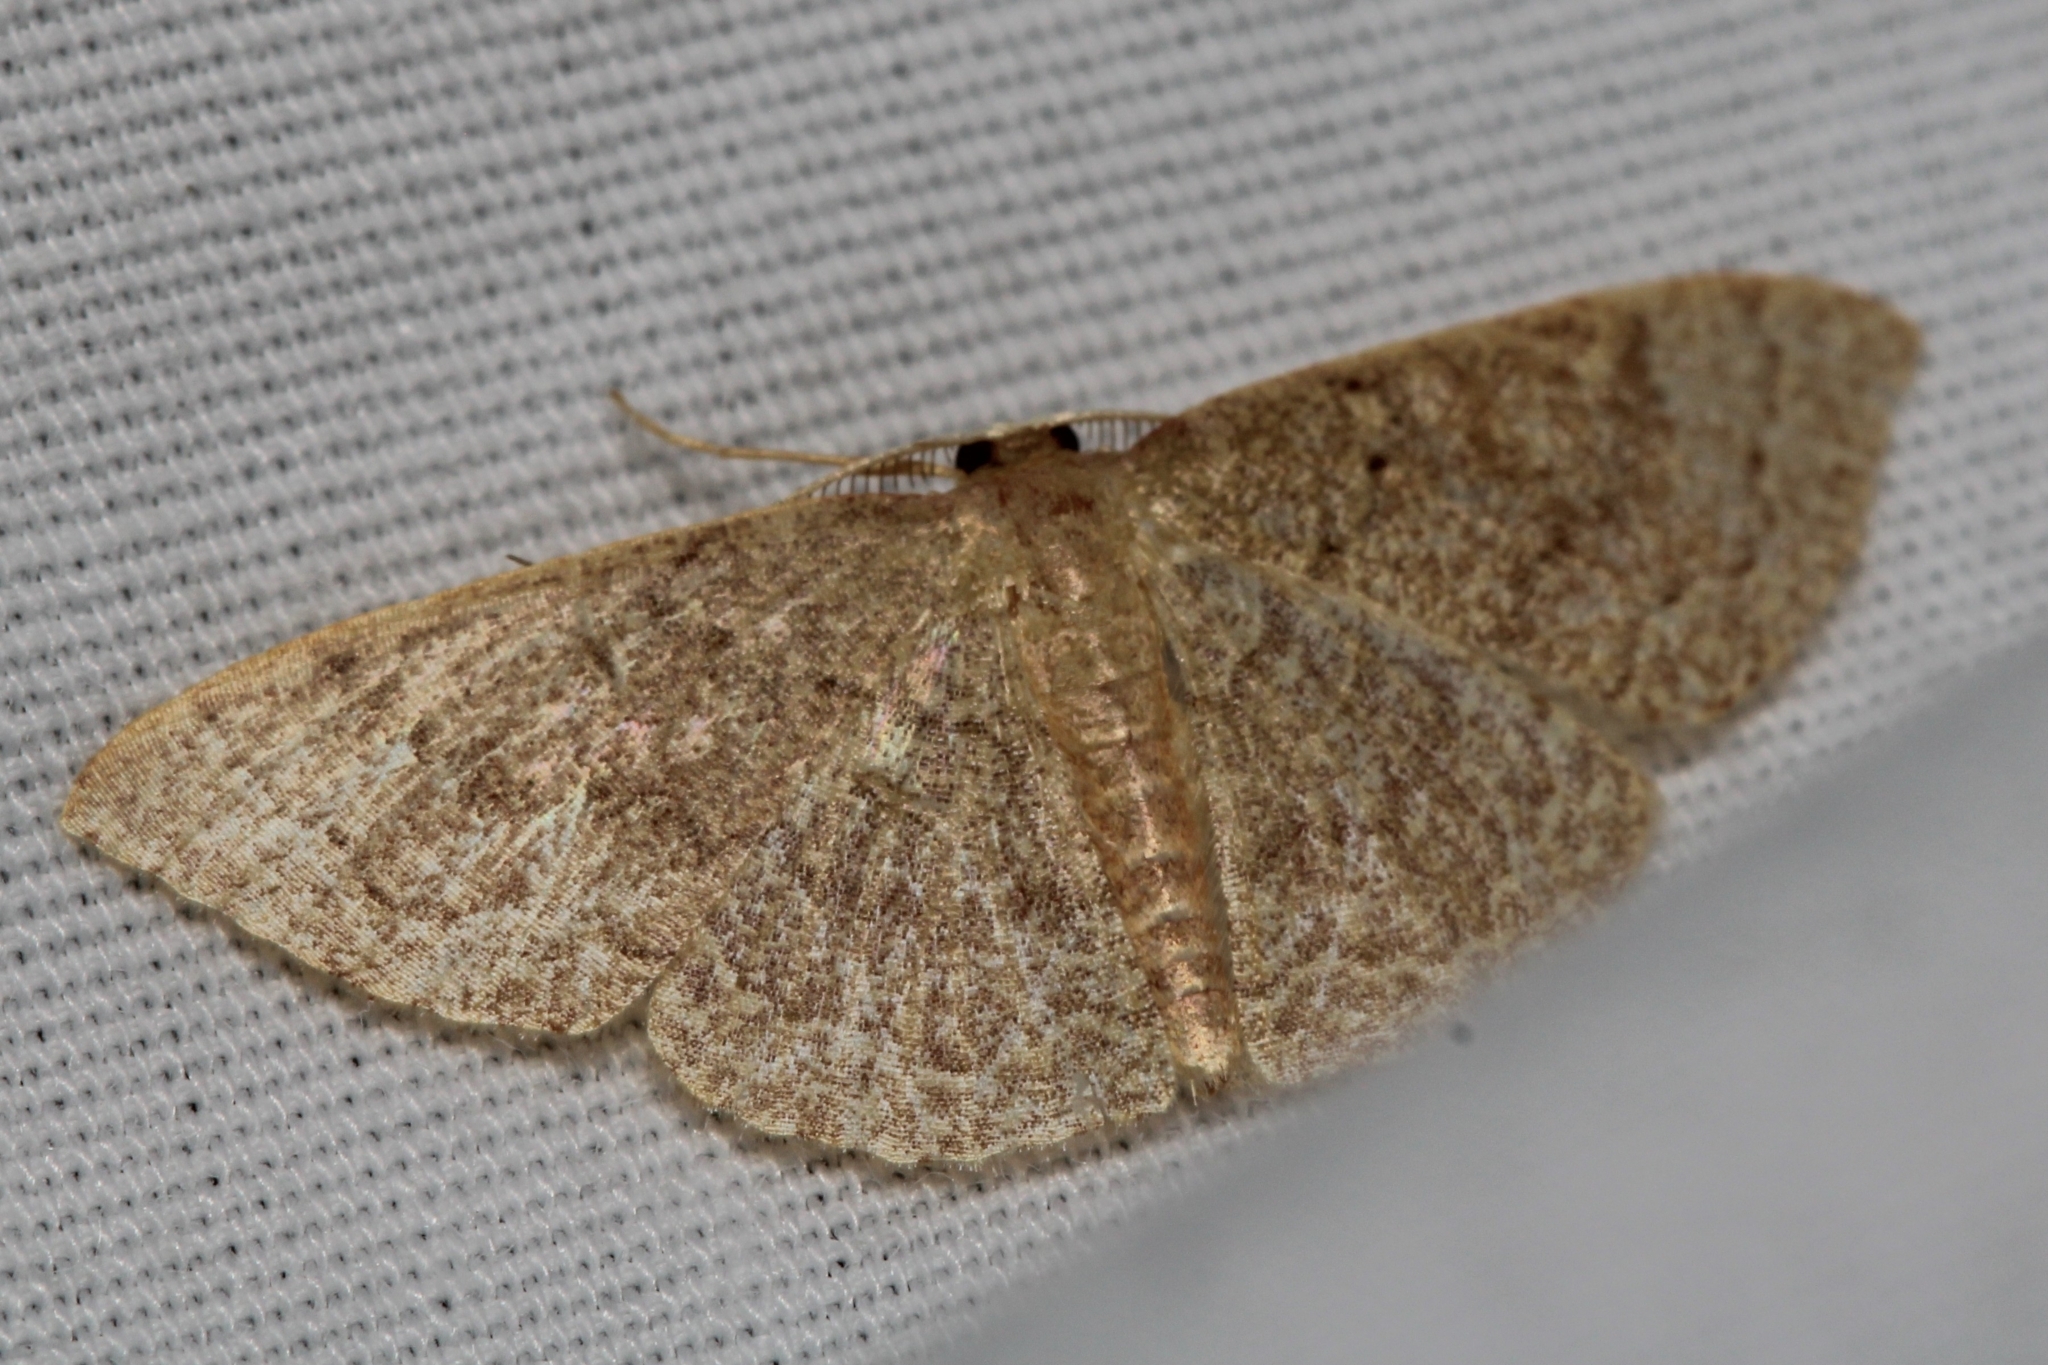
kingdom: Animalia
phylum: Arthropoda
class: Insecta
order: Lepidoptera
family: Geometridae
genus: Pleuroprucha
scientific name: Pleuroprucha insulsaria
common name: Common tan wave
